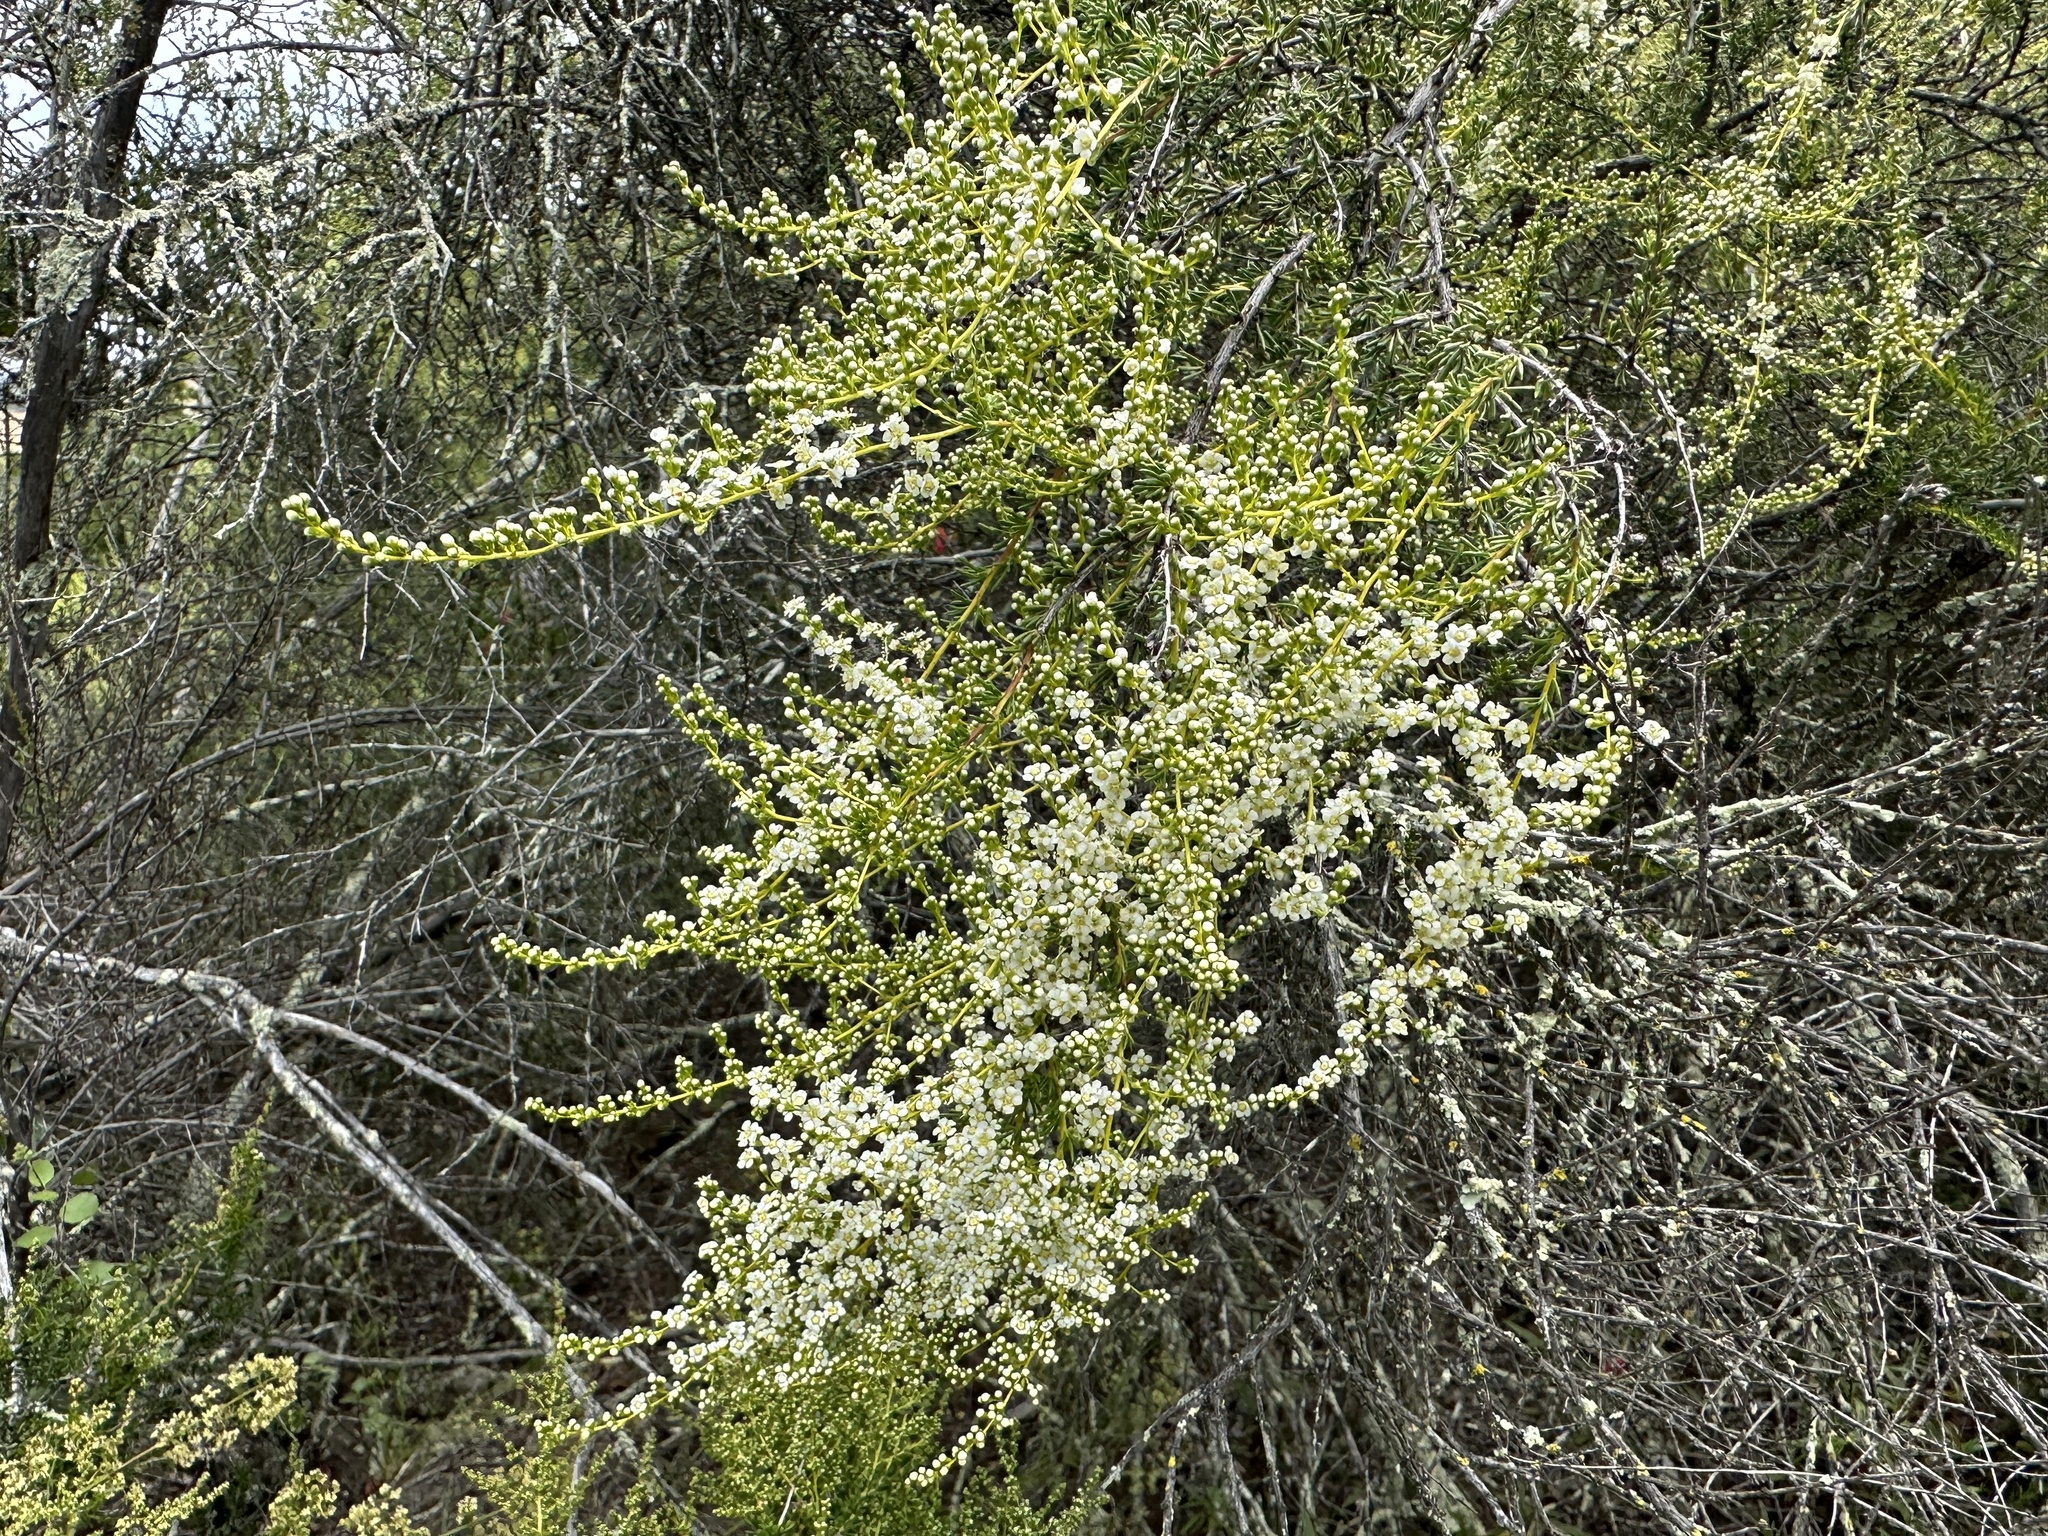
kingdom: Plantae
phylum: Tracheophyta
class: Magnoliopsida
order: Rosales
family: Rosaceae
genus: Adenostoma
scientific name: Adenostoma fasciculatum
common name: Chamise
